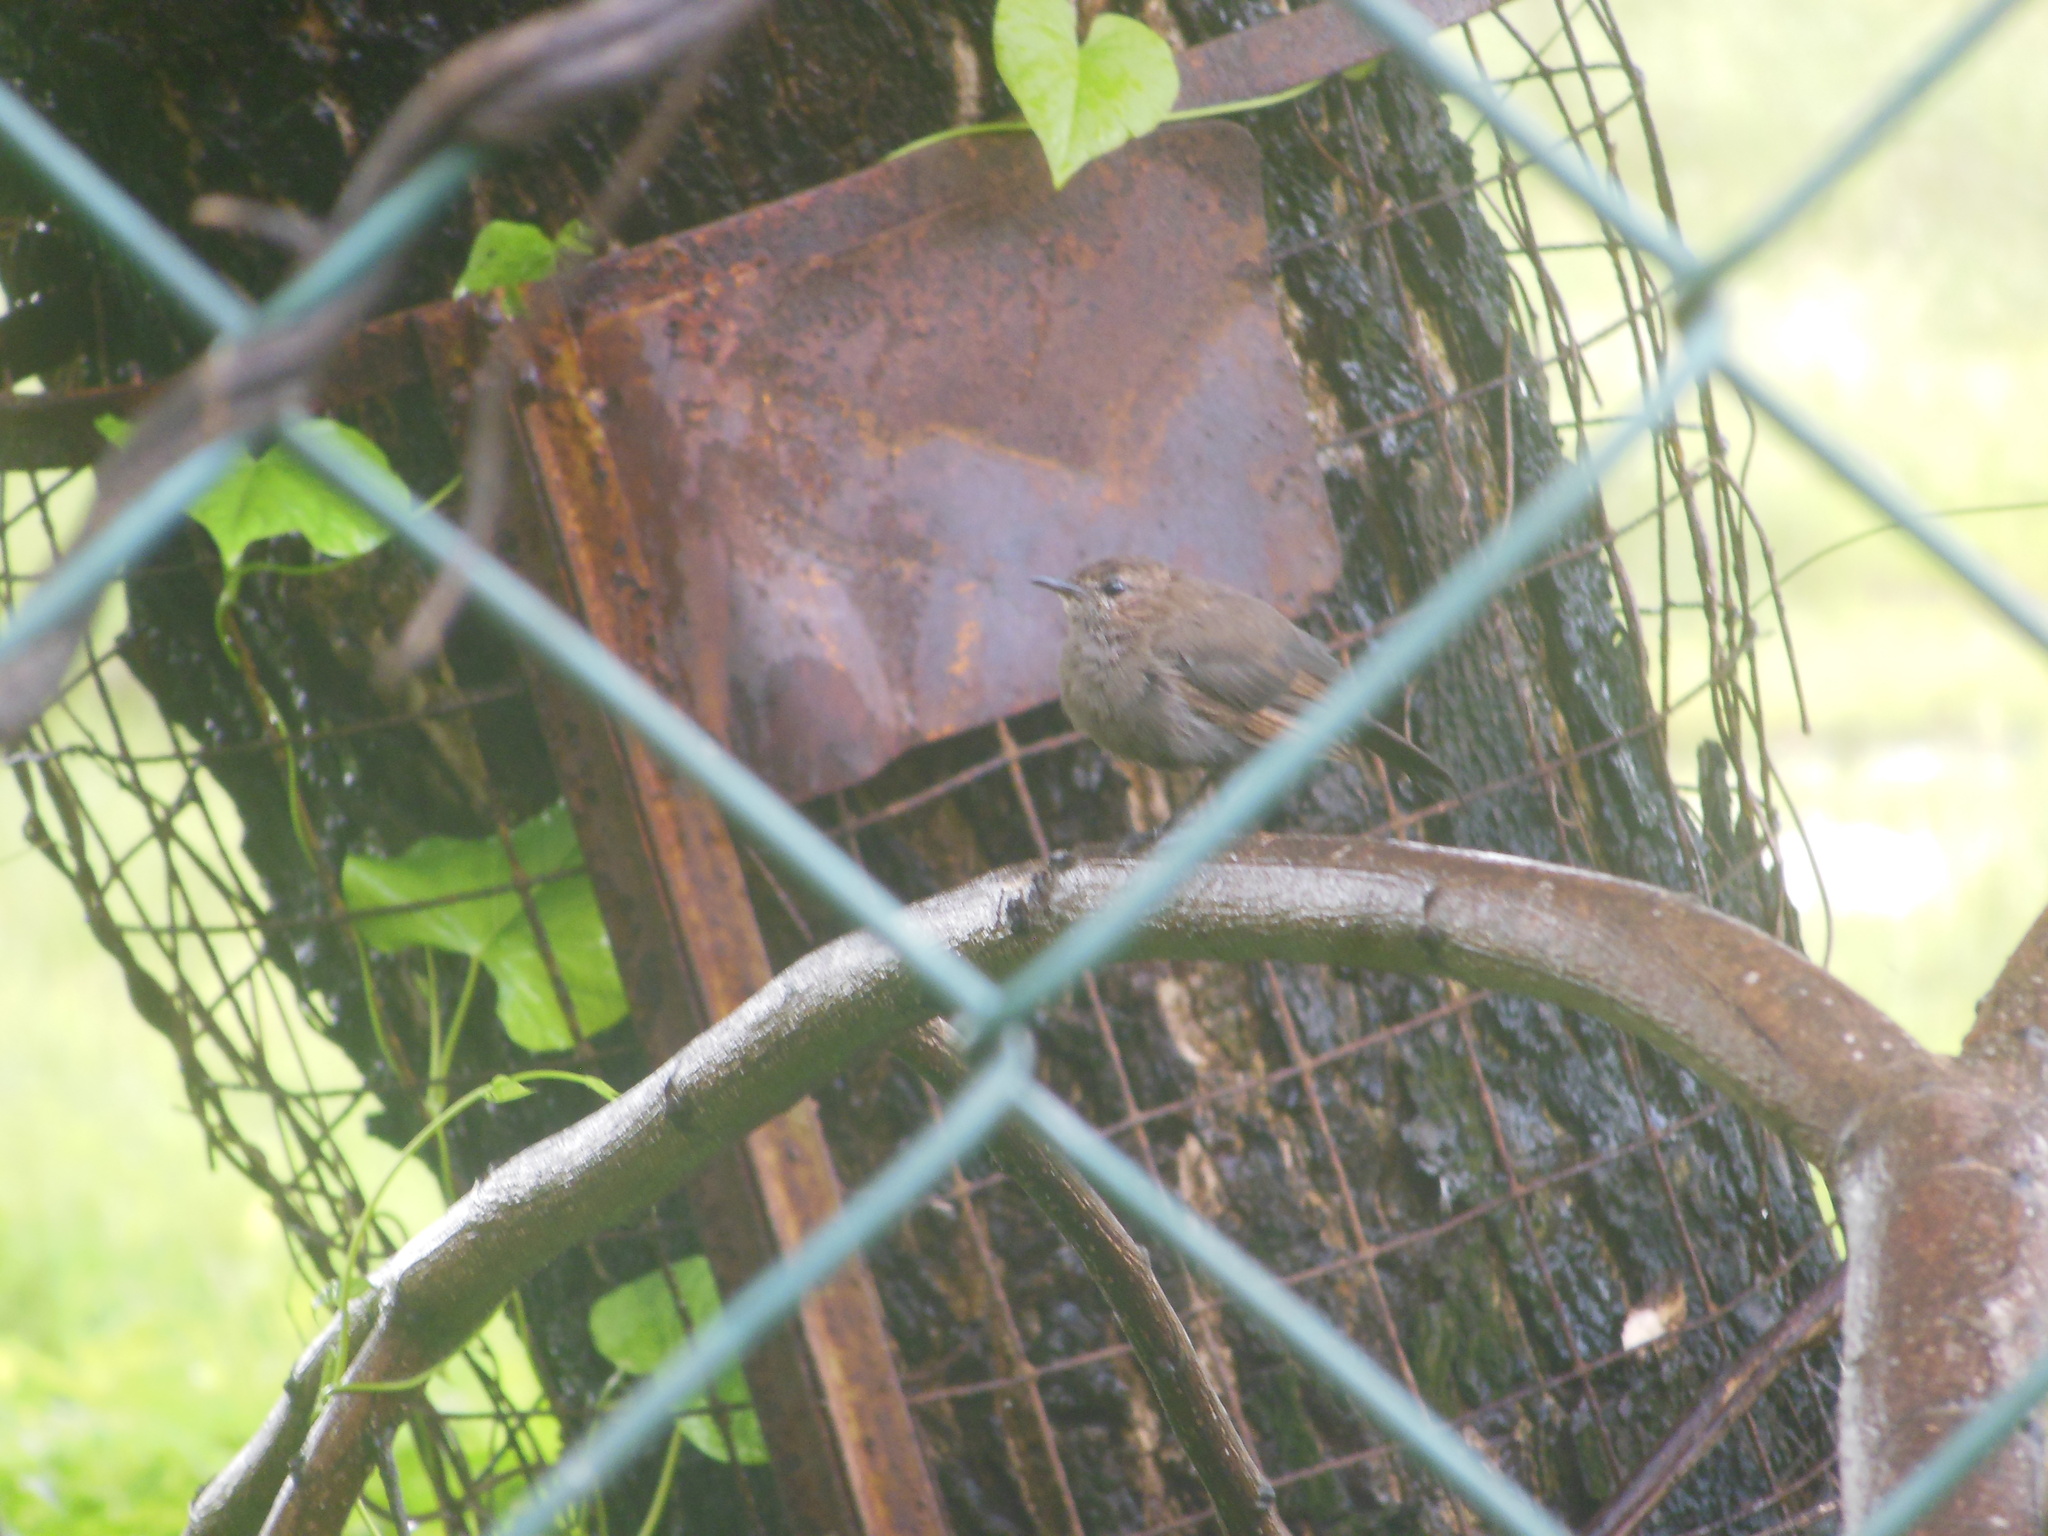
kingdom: Animalia
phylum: Chordata
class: Aves
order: Passeriformes
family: Muscicapidae
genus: Saxicoloides
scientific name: Saxicoloides fulicatus
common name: Indian robin
